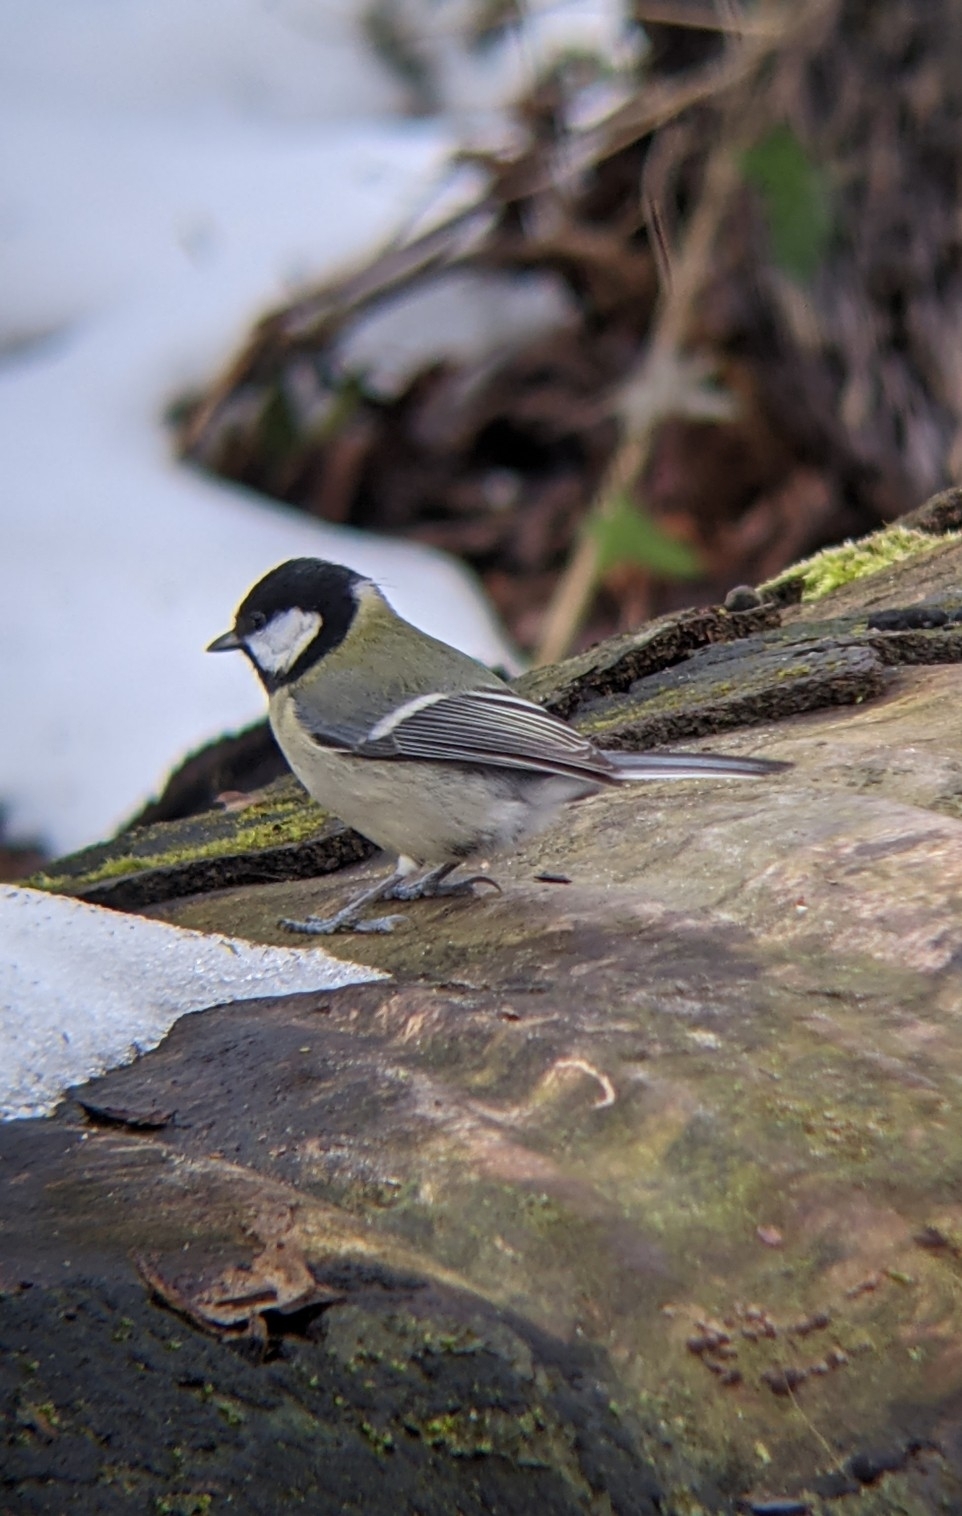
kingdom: Animalia
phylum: Chordata
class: Aves
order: Passeriformes
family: Paridae
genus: Parus
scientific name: Parus major
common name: Great tit
